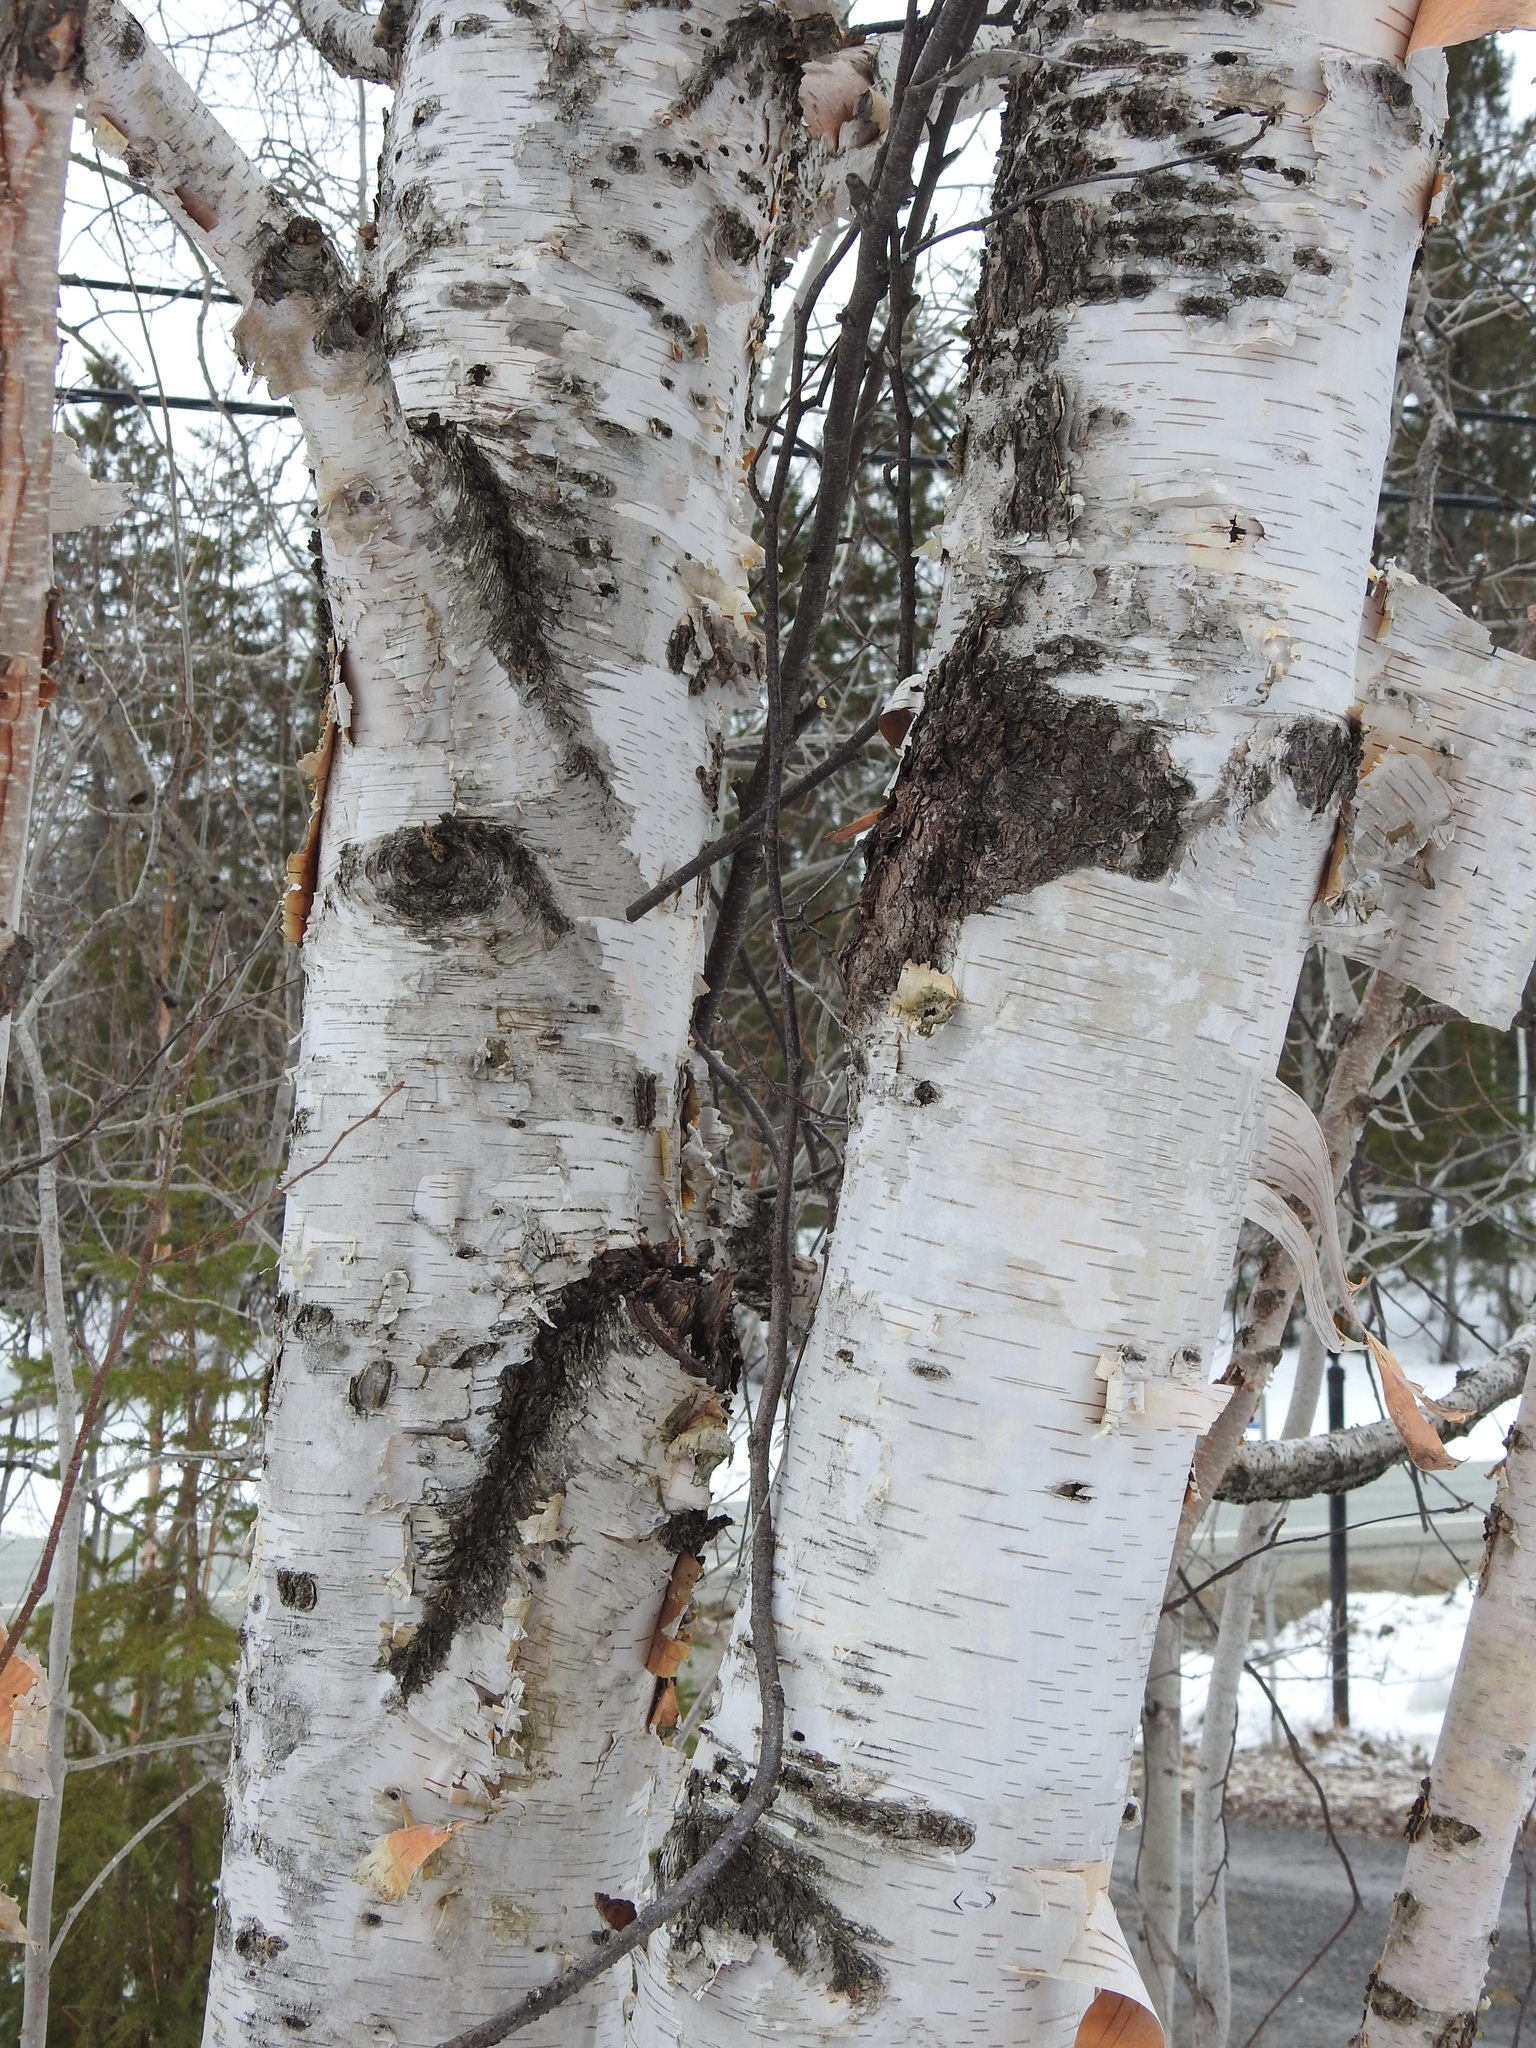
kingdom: Plantae
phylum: Tracheophyta
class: Magnoliopsida
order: Fagales
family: Betulaceae
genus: Betula
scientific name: Betula papyrifera
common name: Paper birch
